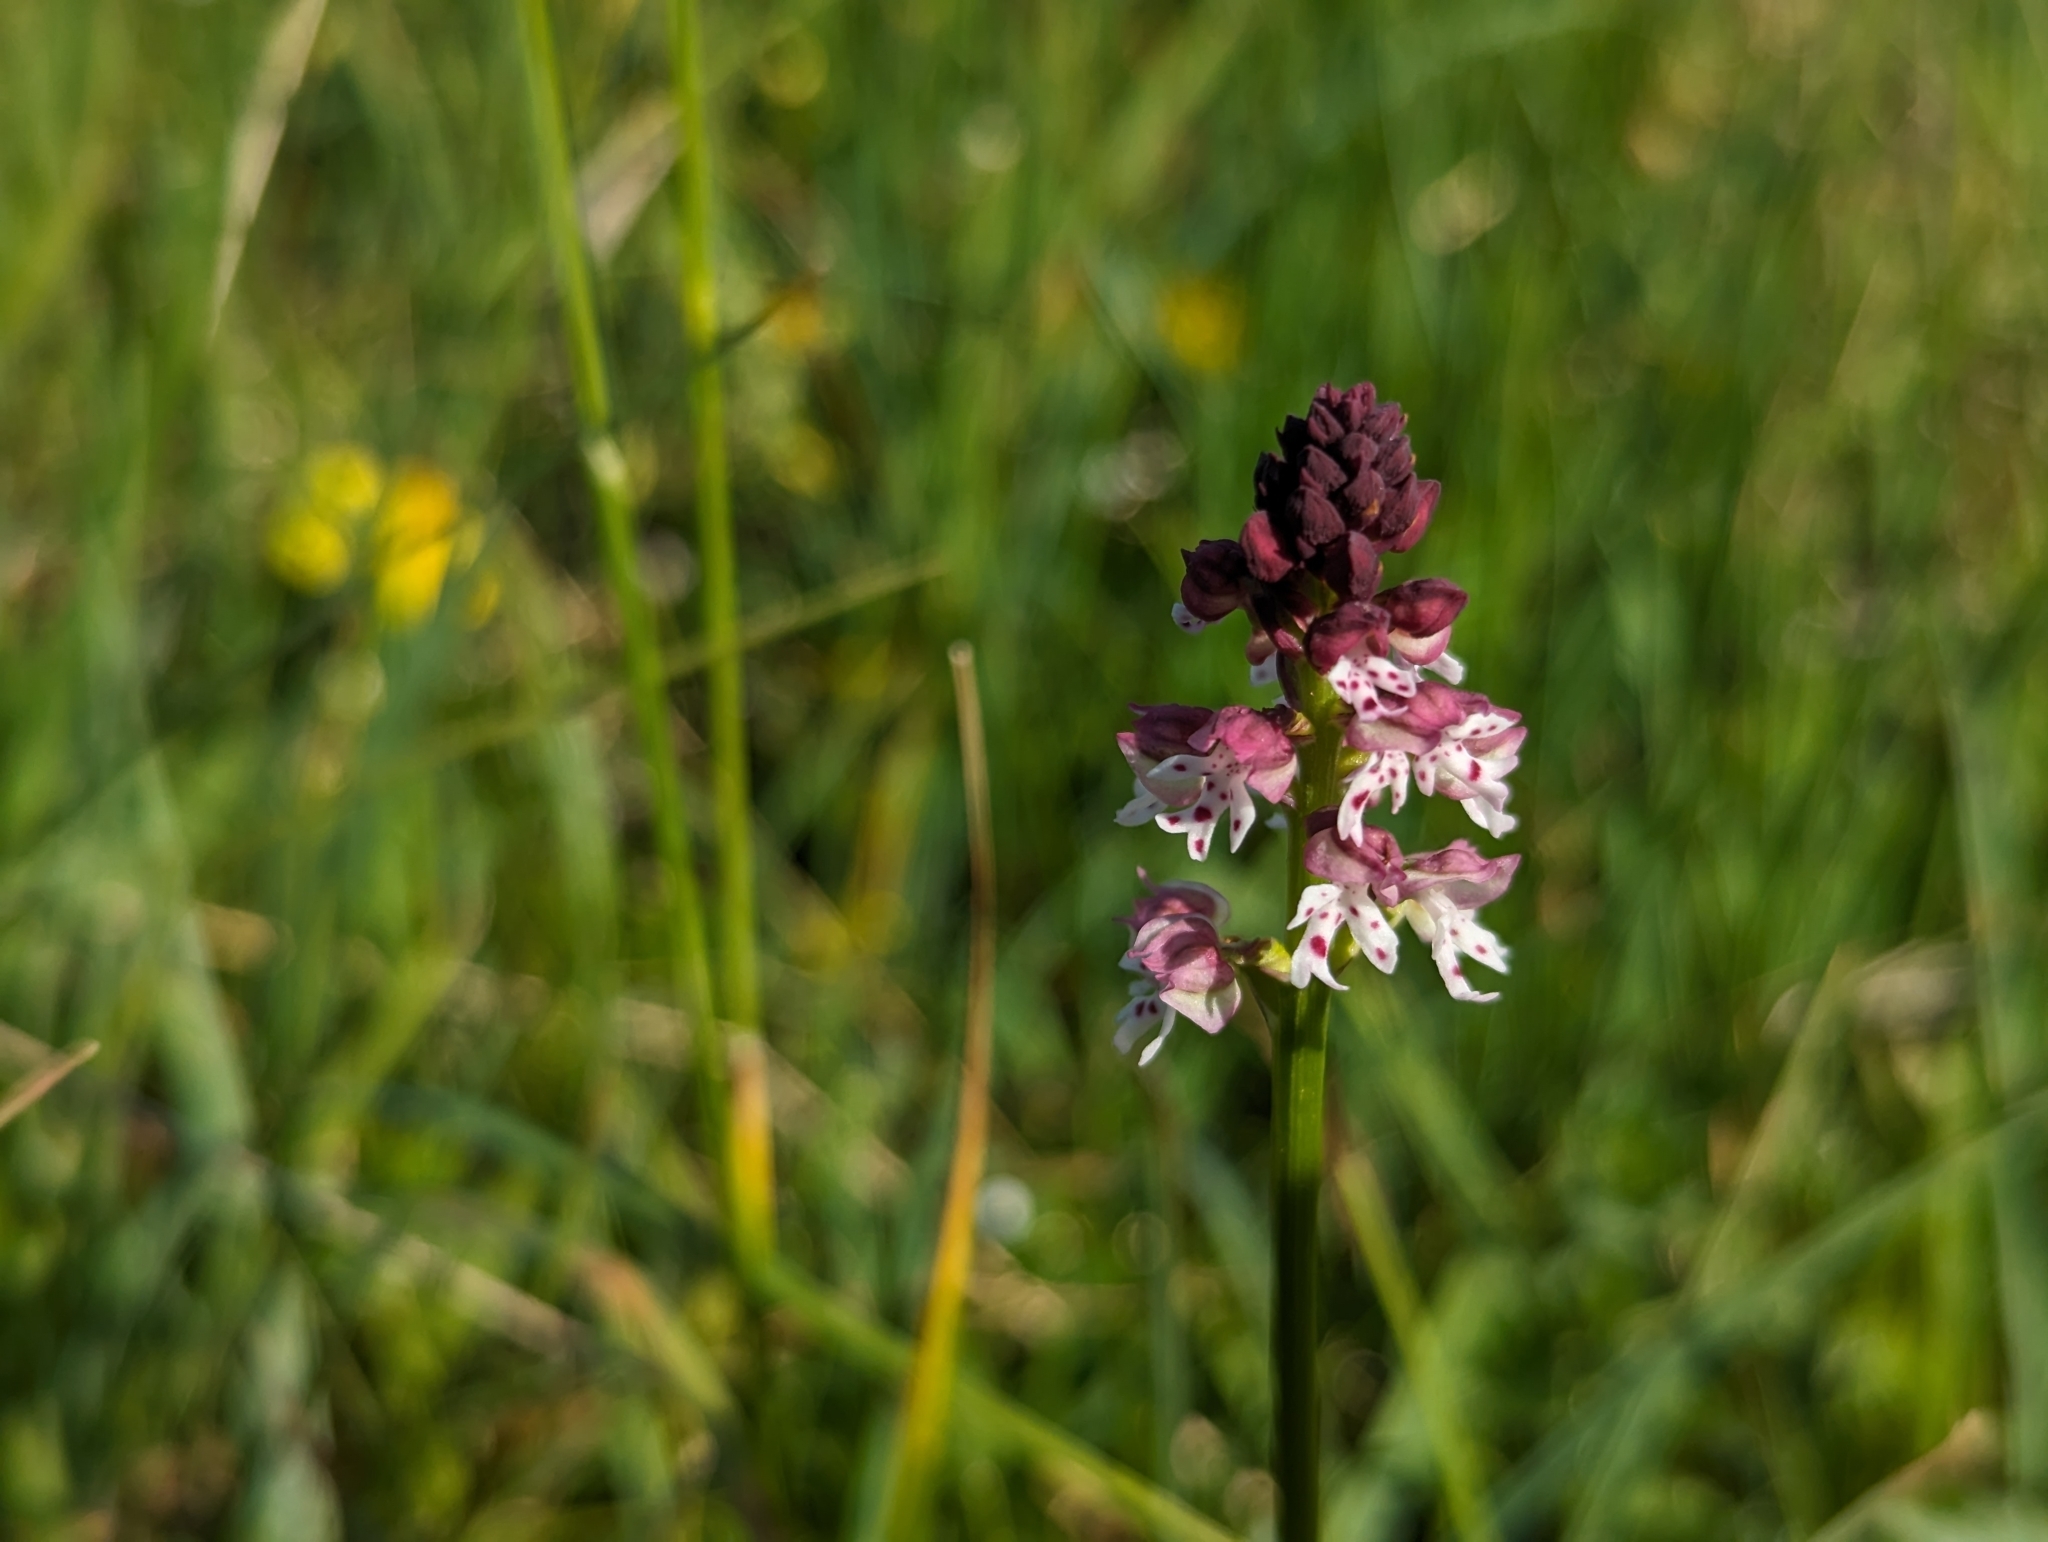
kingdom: Plantae
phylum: Tracheophyta
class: Liliopsida
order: Asparagales
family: Orchidaceae
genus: Neotinea
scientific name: Neotinea ustulata
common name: Burnt orchid
